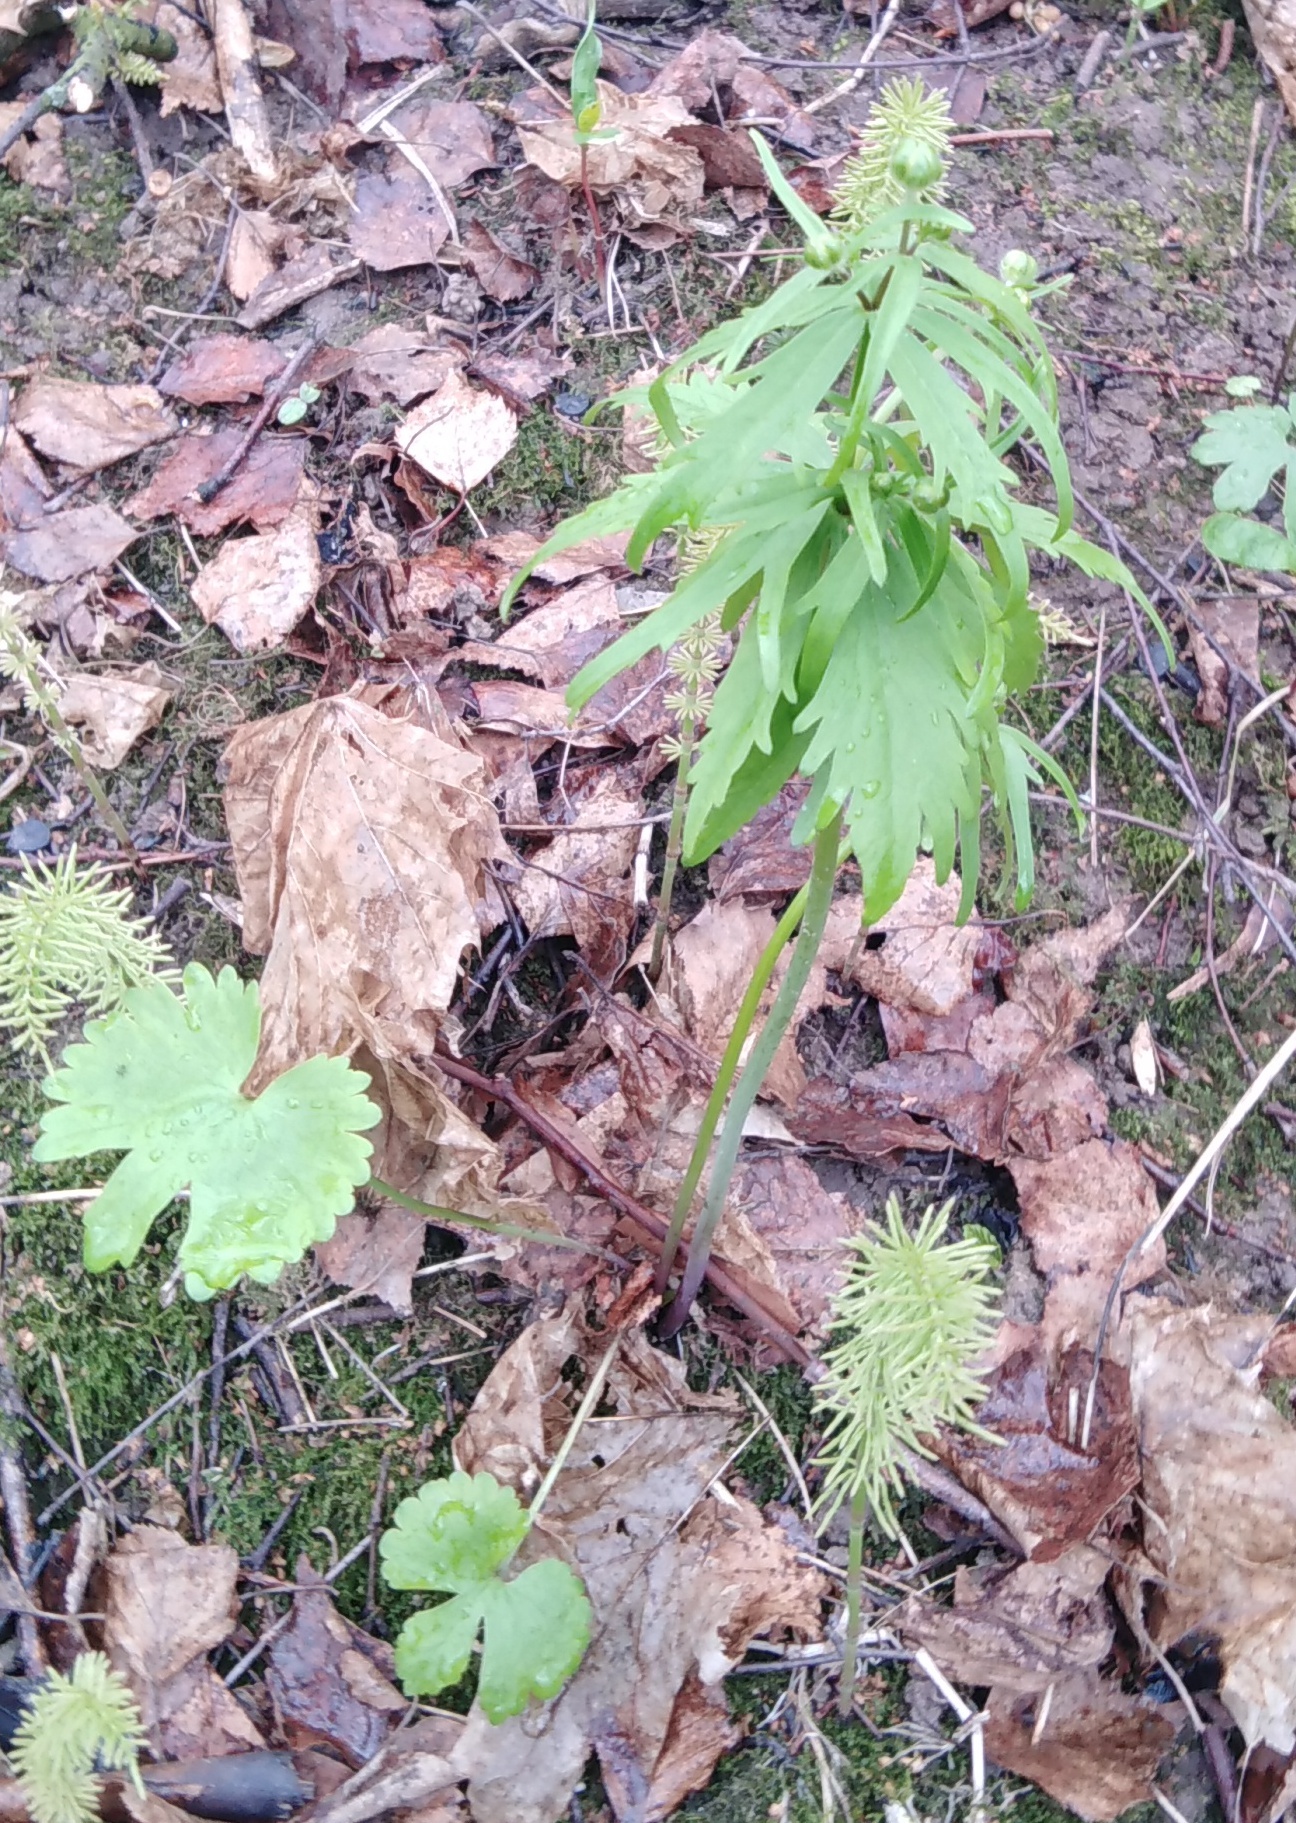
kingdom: Plantae
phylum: Tracheophyta
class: Magnoliopsida
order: Ranunculales
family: Ranunculaceae
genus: Ranunculus
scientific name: Ranunculus fallax
